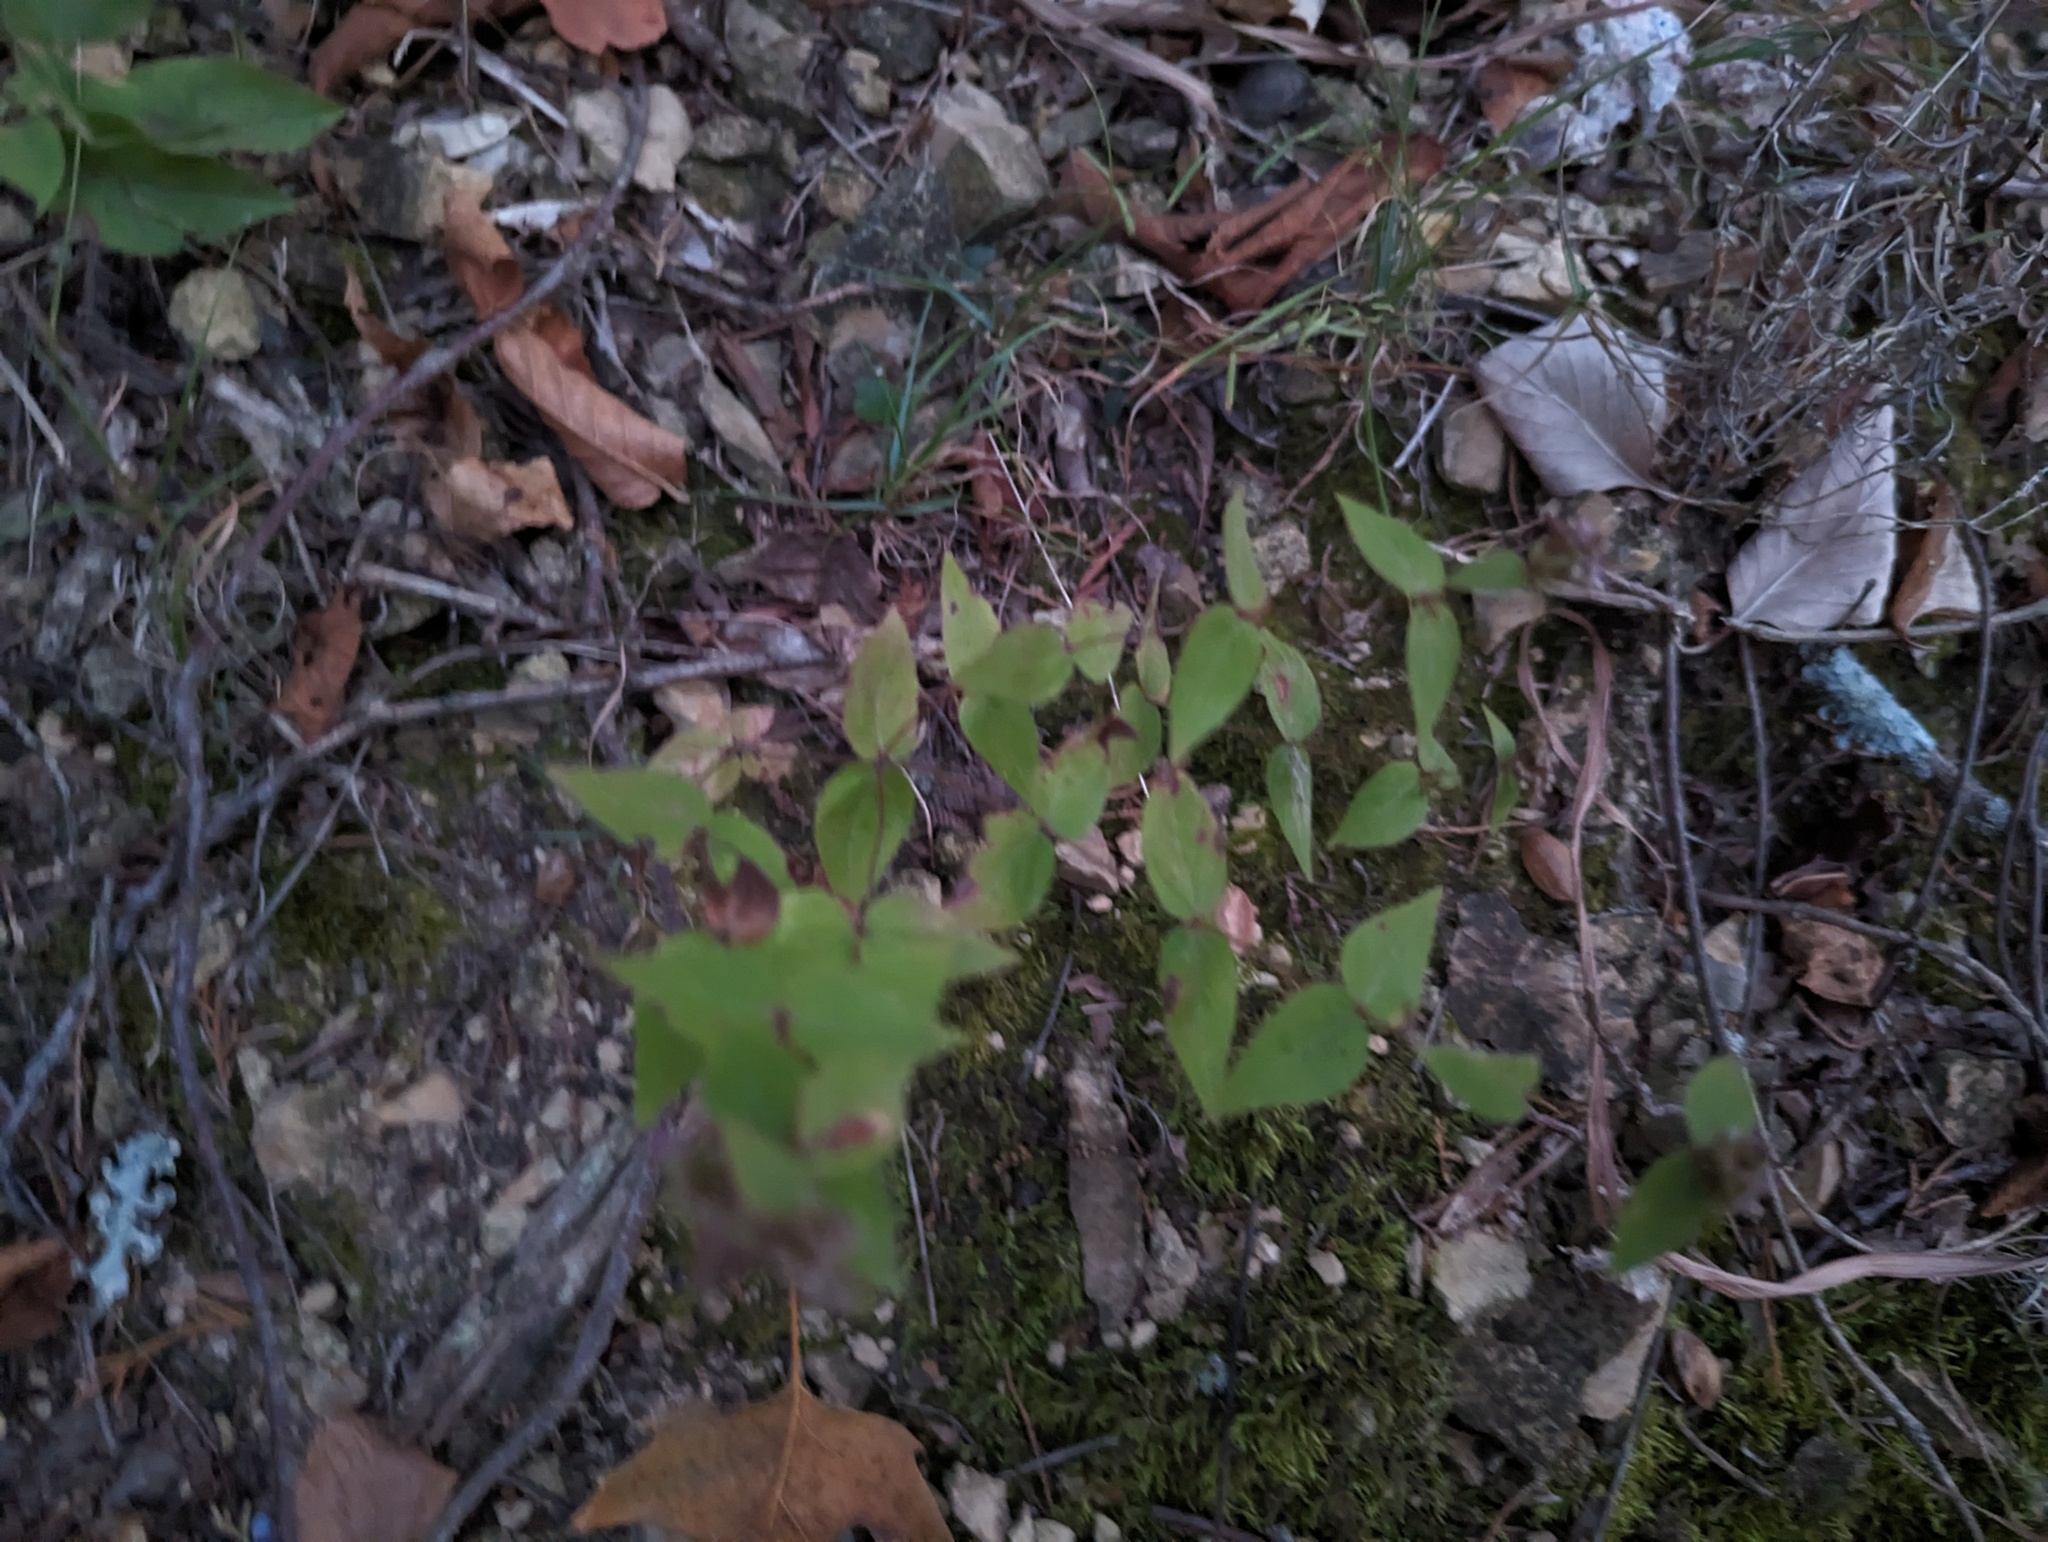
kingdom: Plantae
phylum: Tracheophyta
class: Magnoliopsida
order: Lamiales
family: Lamiaceae
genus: Cunila
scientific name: Cunila origanoides
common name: American dittany
